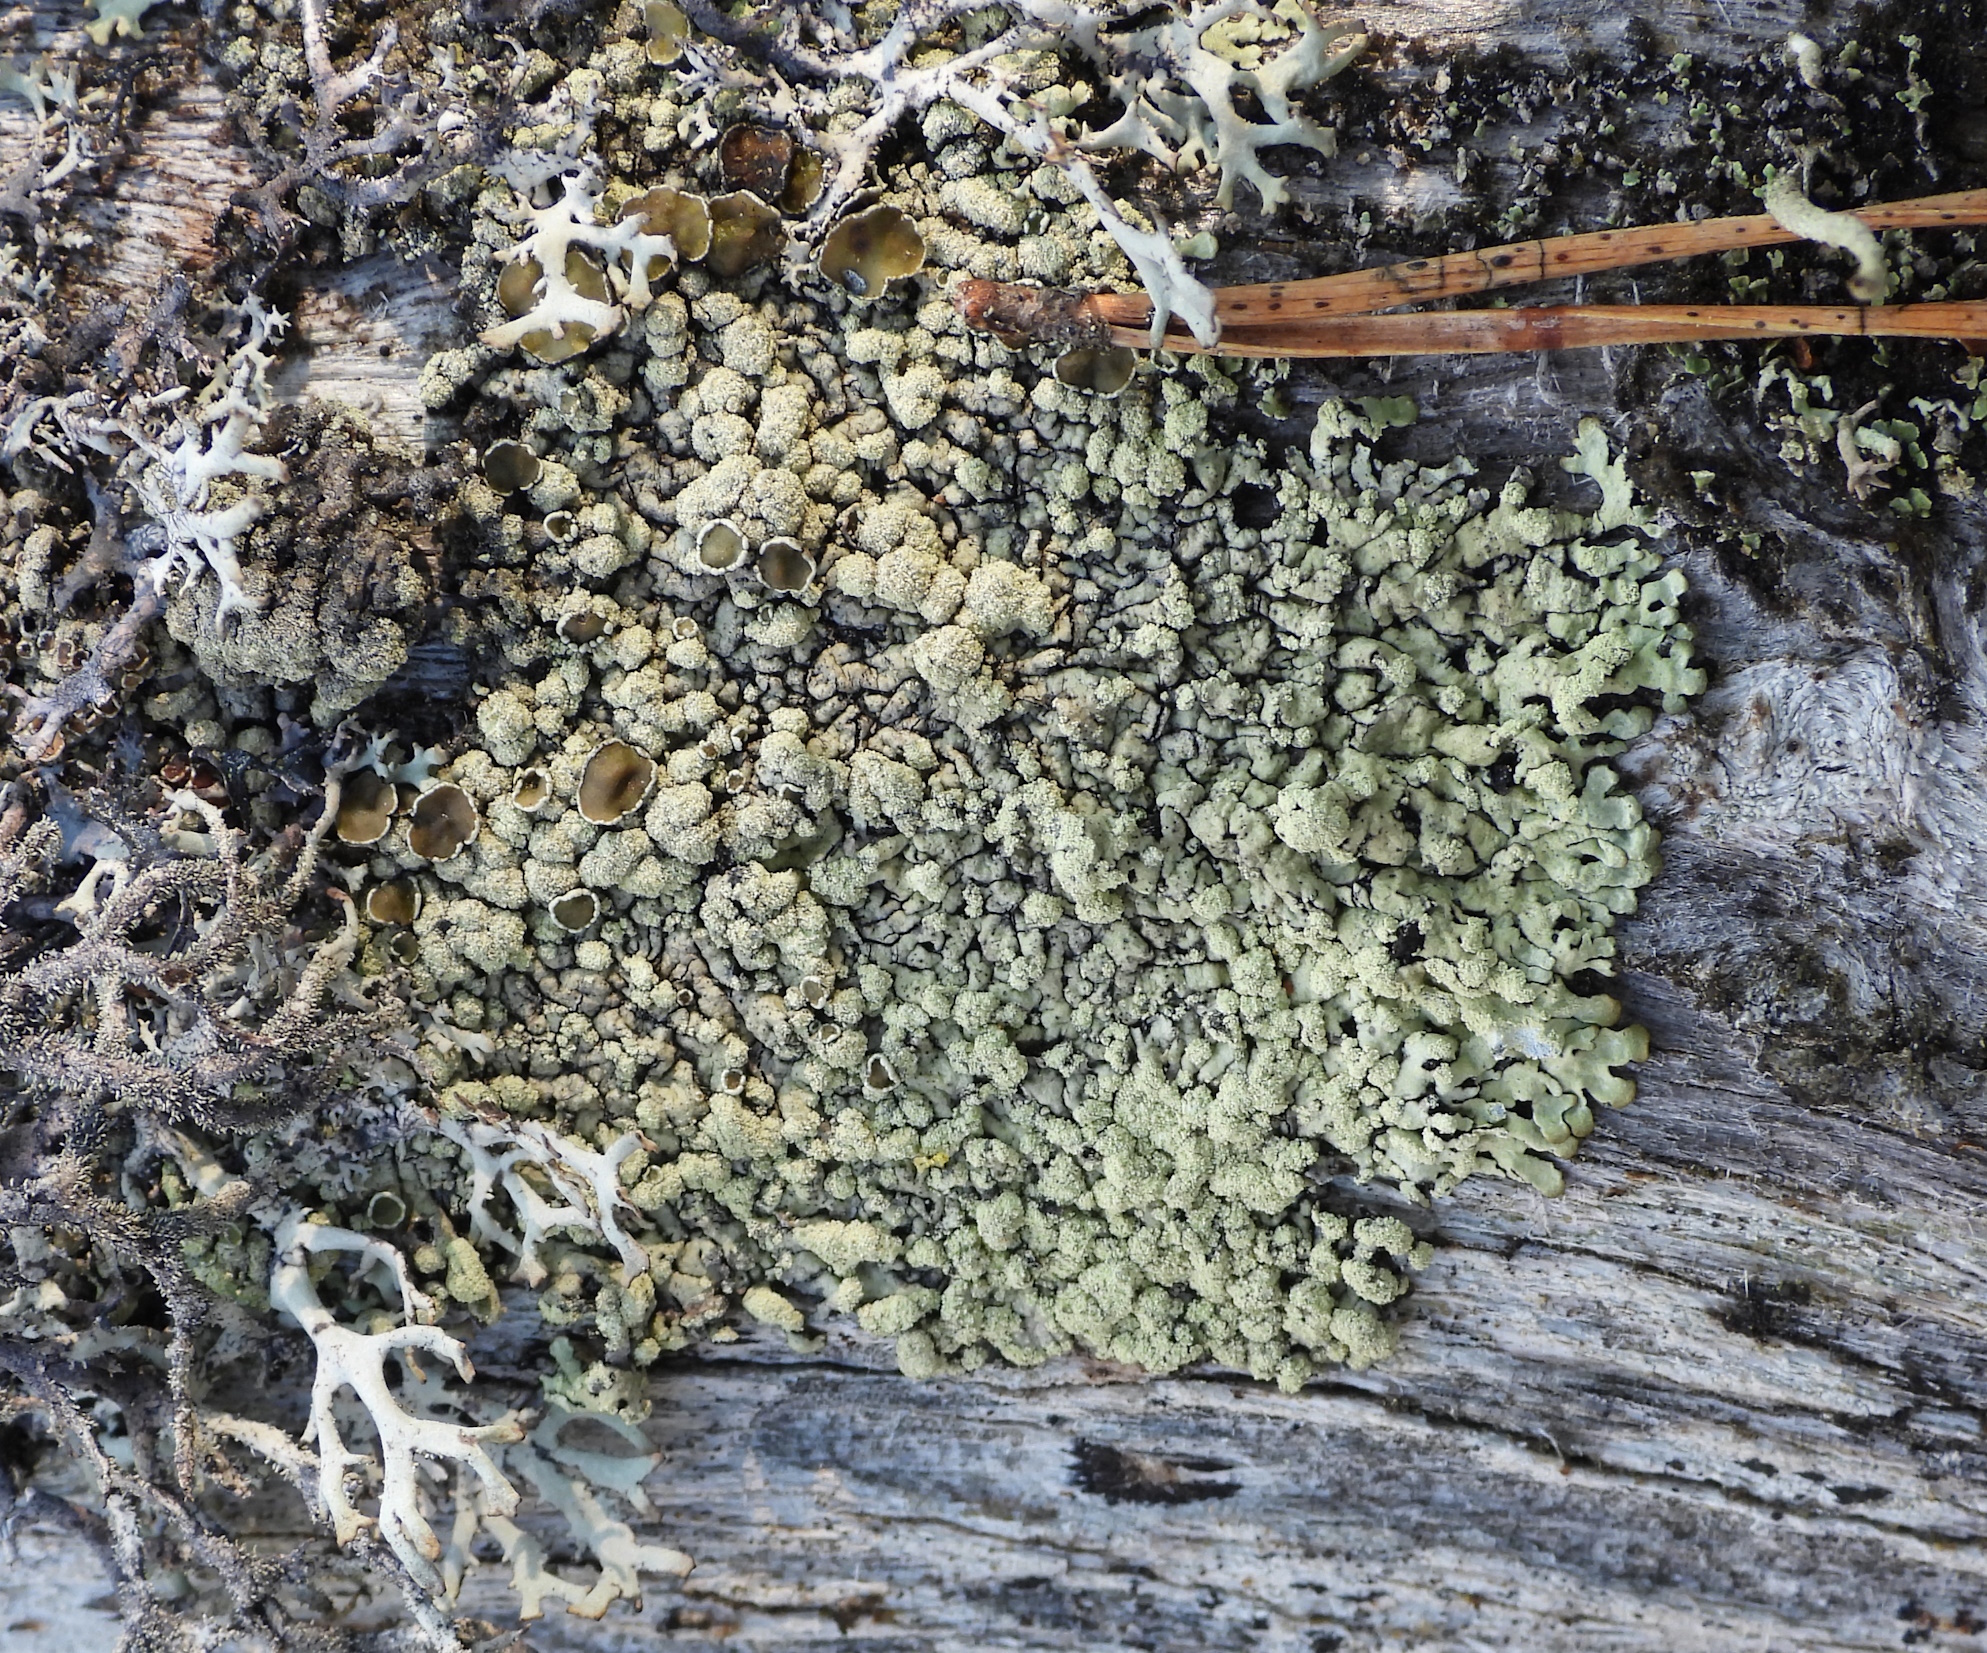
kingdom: Fungi
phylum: Ascomycota
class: Lecanoromycetes
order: Lecanorales
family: Parmeliaceae
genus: Parmeliopsis
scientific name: Parmeliopsis ambigua
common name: Green starburst lichen
